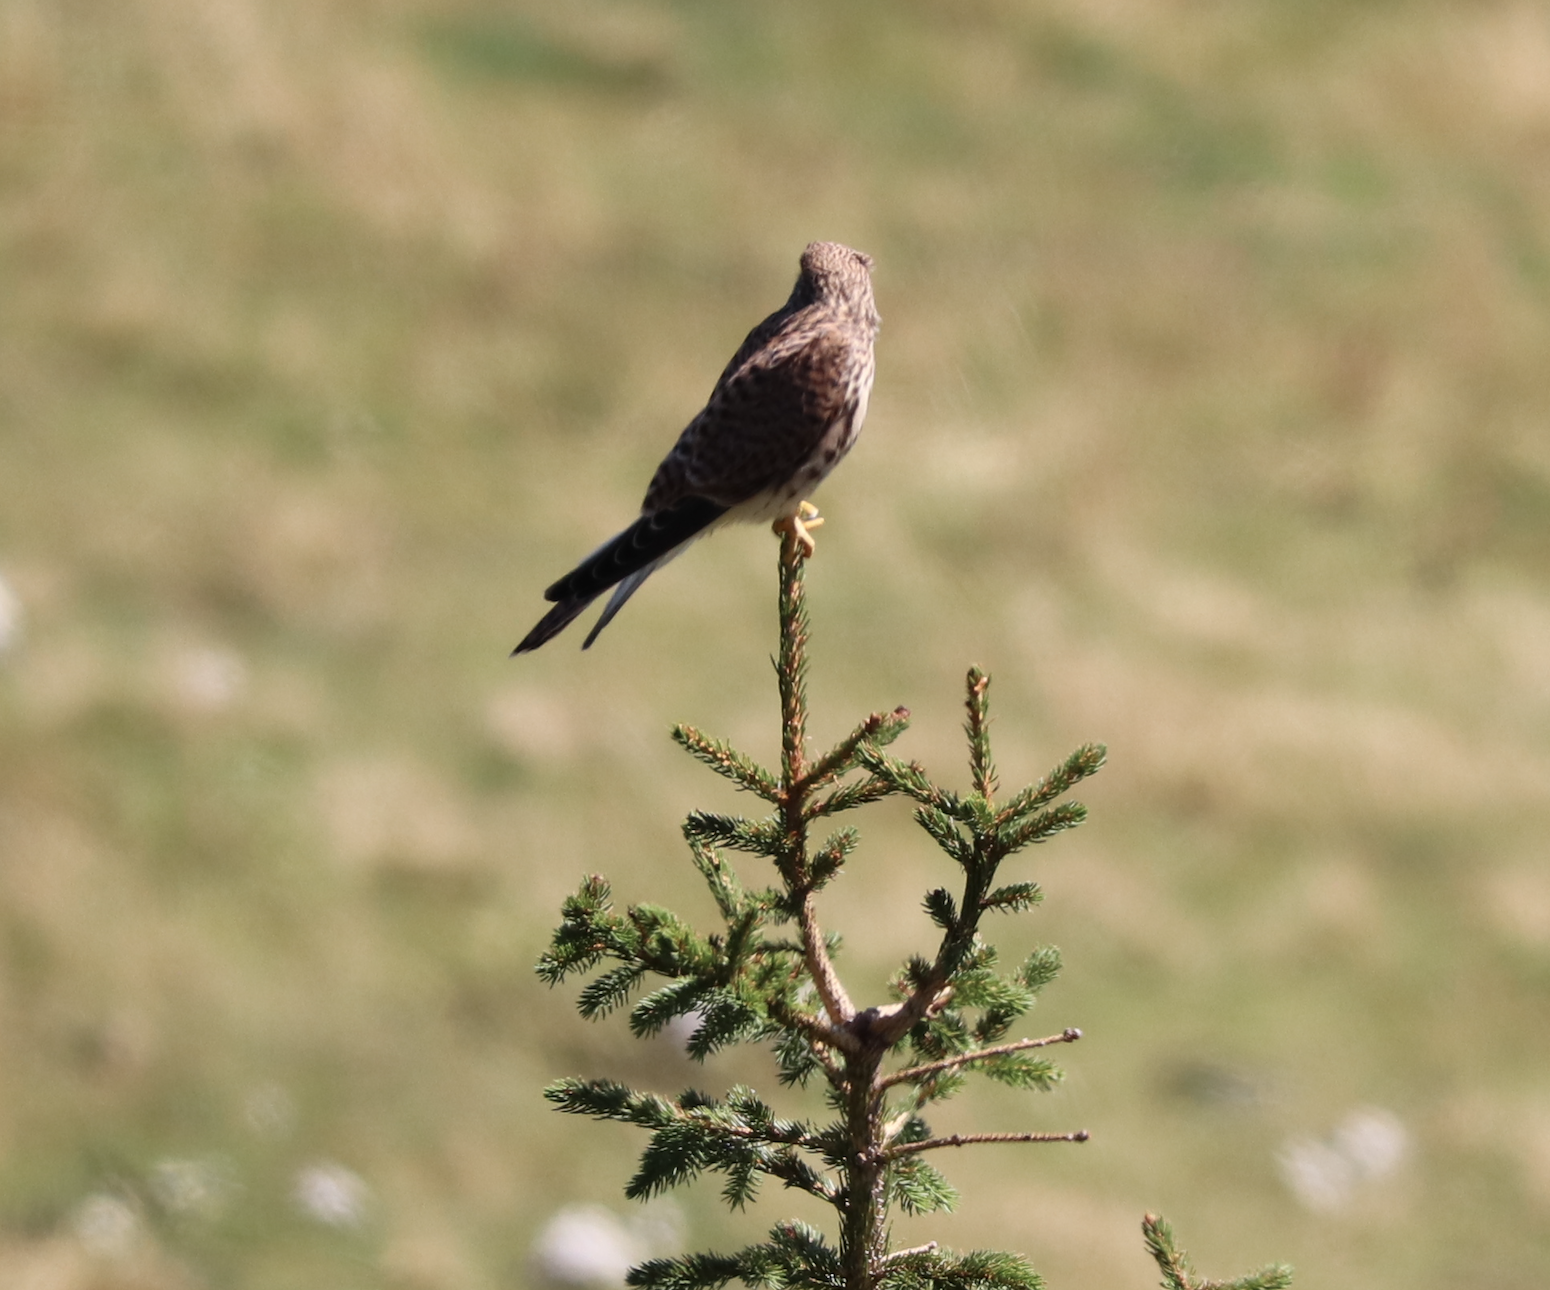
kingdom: Animalia
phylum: Chordata
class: Aves
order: Falconiformes
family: Falconidae
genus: Falco
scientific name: Falco tinnunculus
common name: Common kestrel
